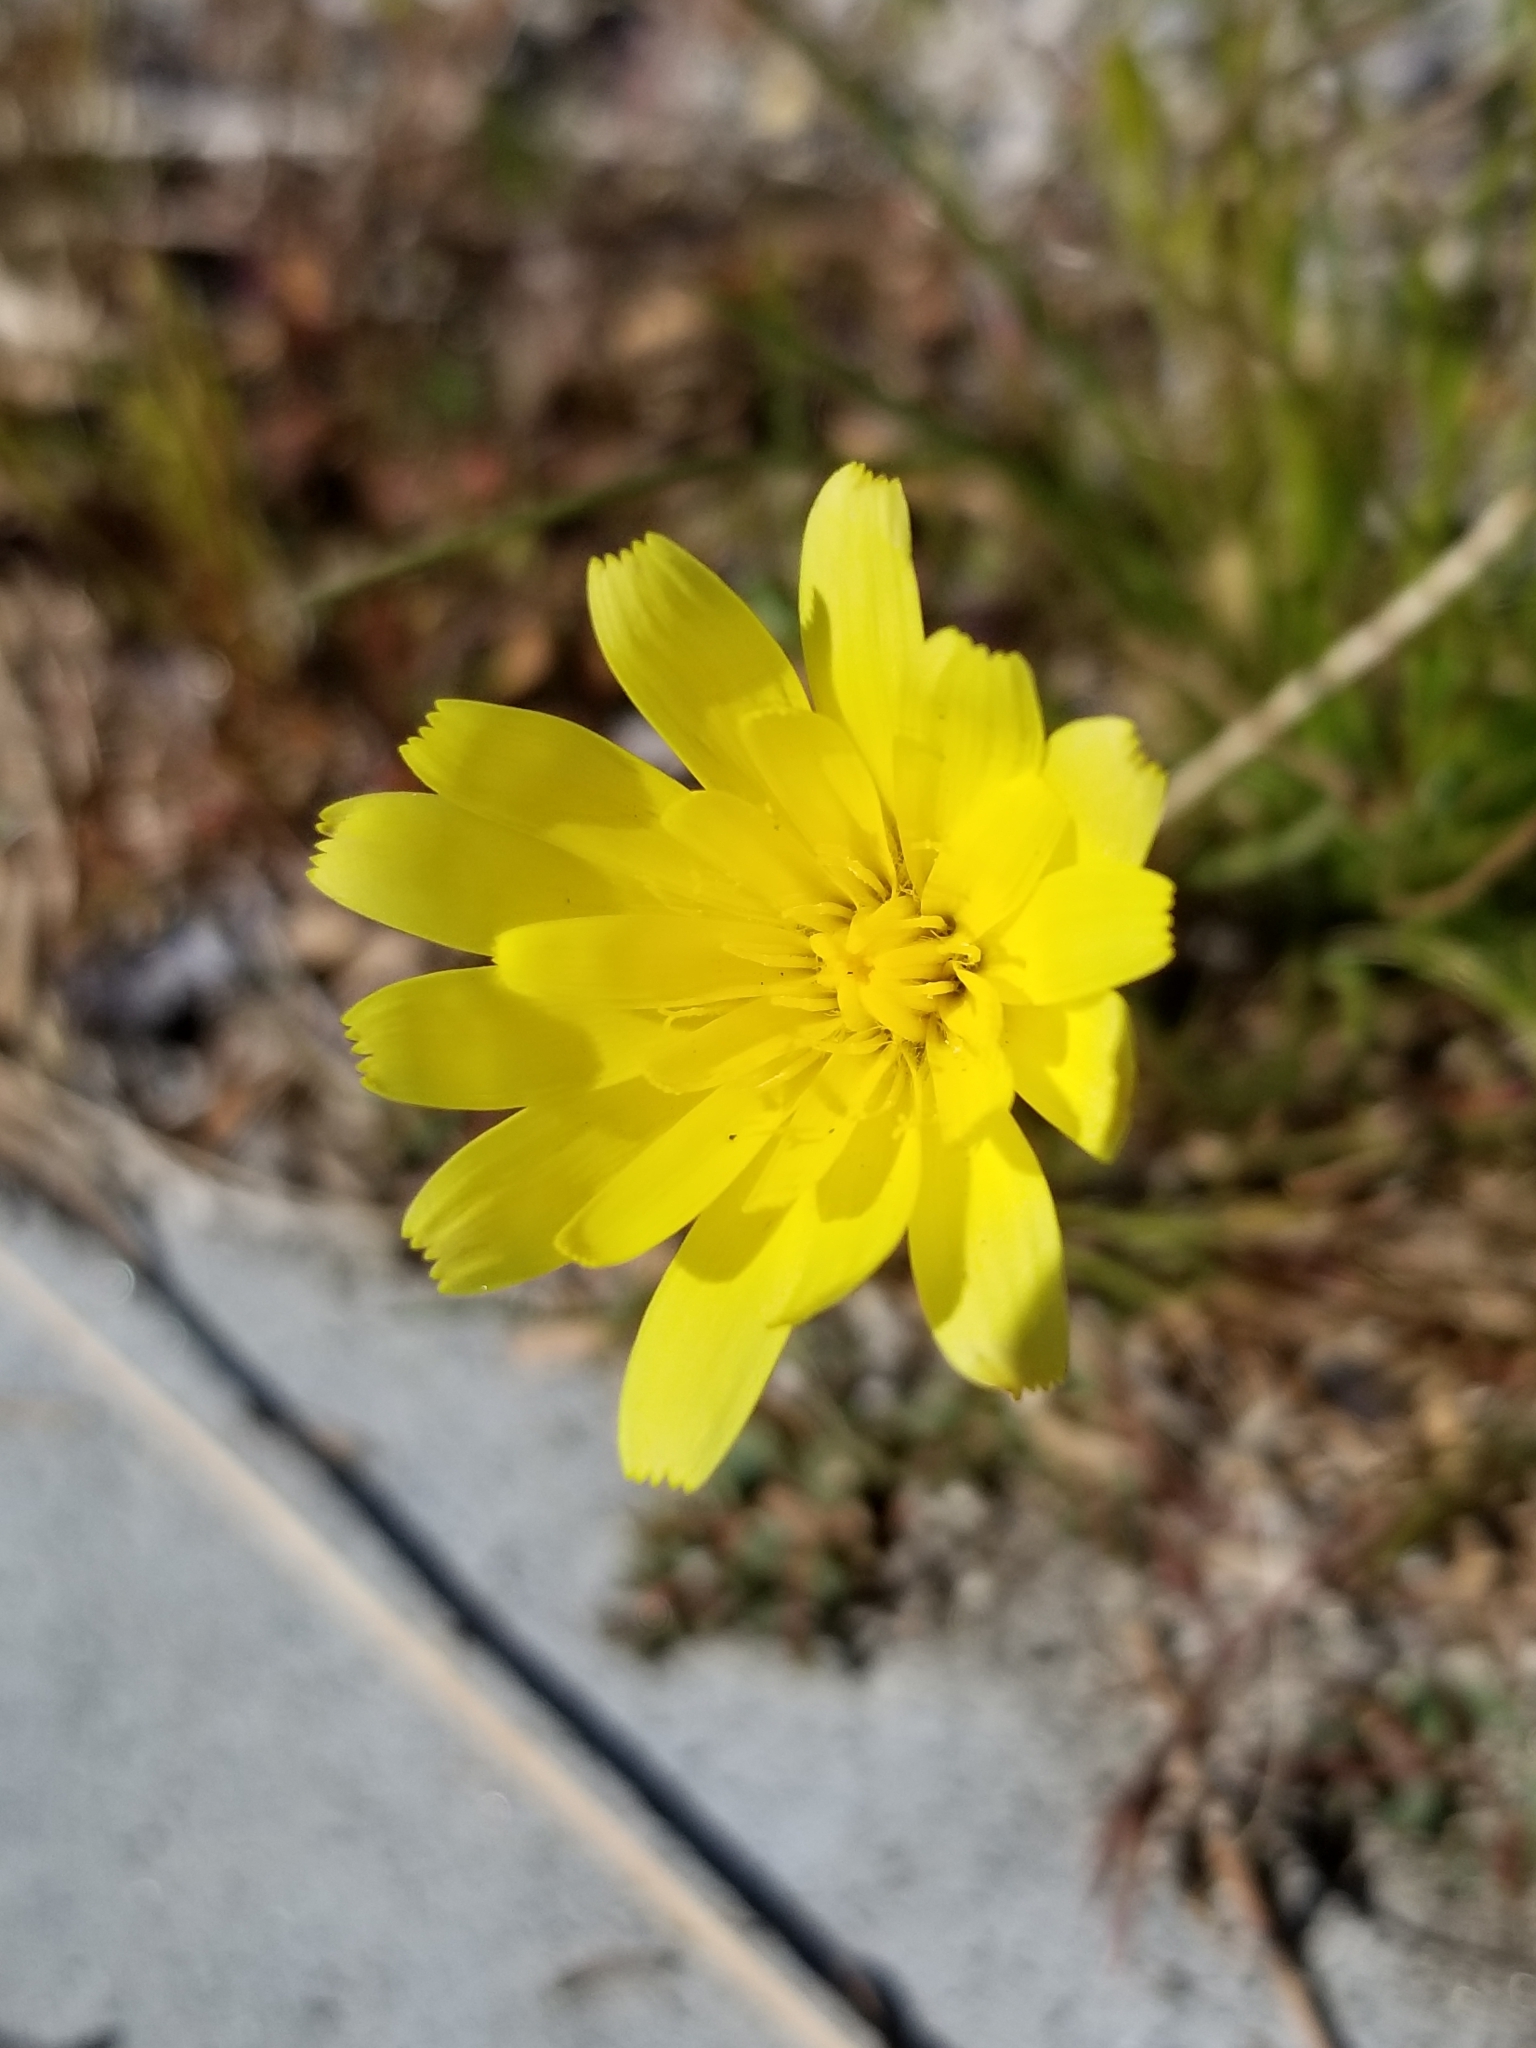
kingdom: Plantae
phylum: Tracheophyta
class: Magnoliopsida
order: Asterales
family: Asteraceae
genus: Malacothrix
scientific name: Malacothrix glabrata
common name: Smooth desert-dandelion
